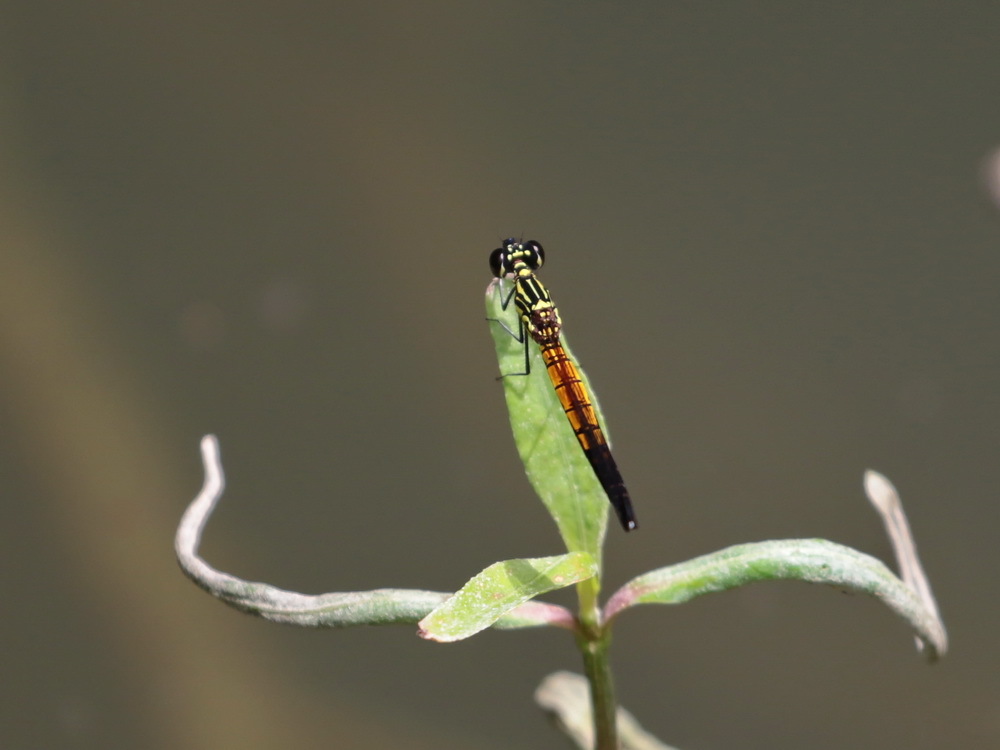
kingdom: Animalia
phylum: Arthropoda
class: Insecta
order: Odonata
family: Chlorocyphidae
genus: Libellago
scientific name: Libellago lineata
